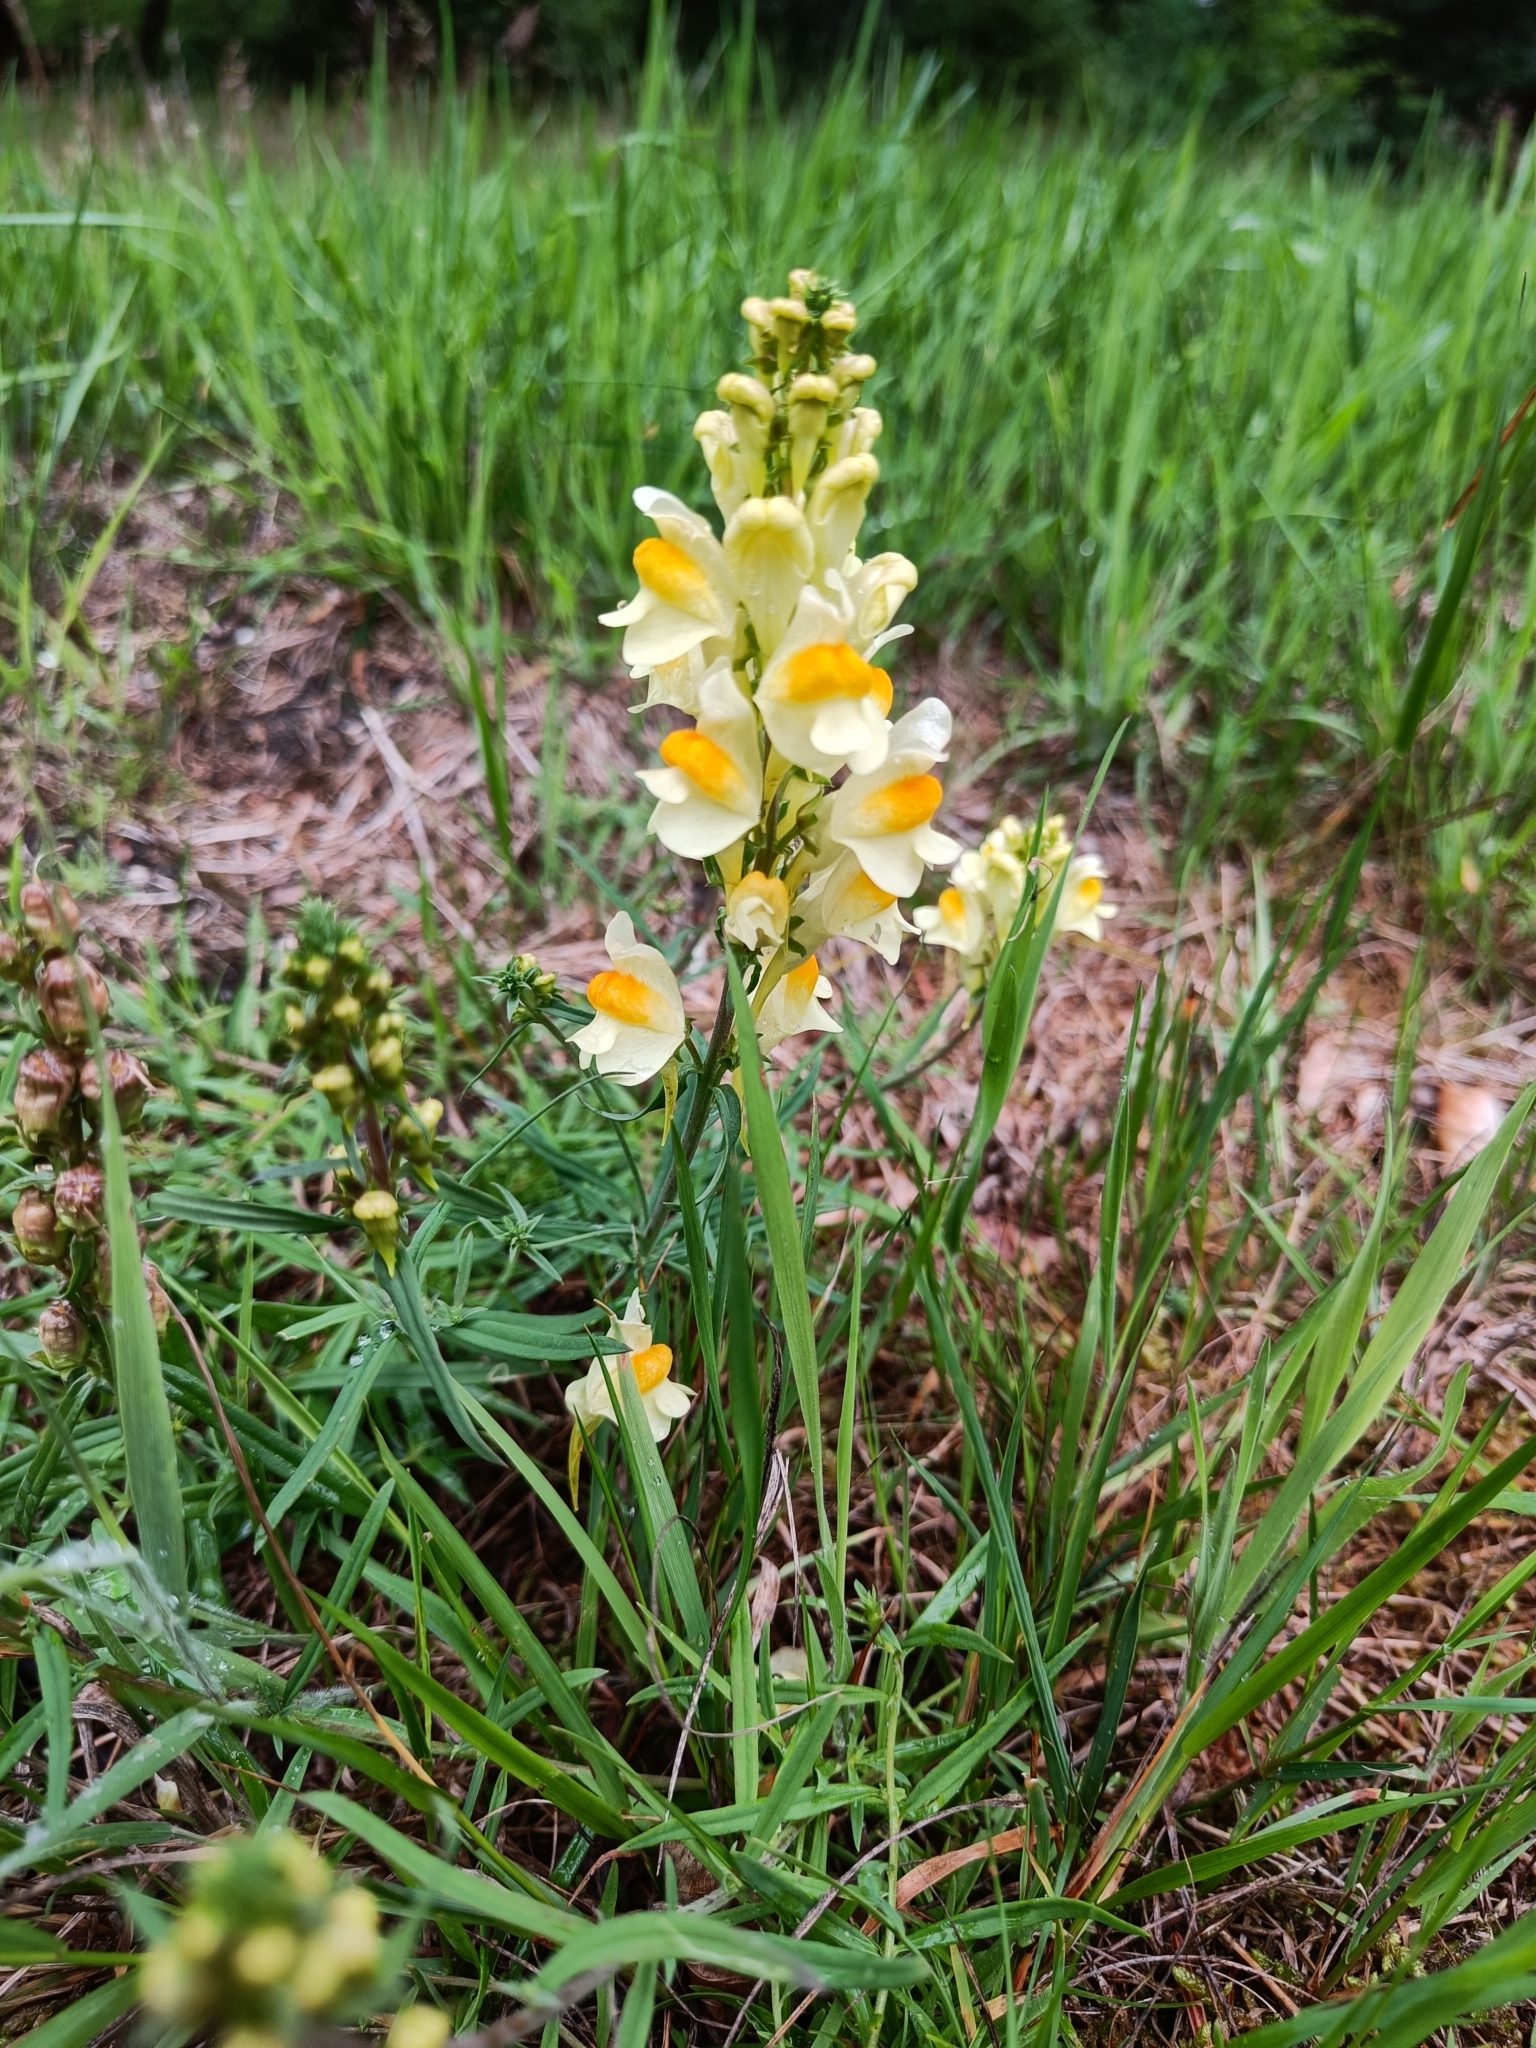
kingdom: Plantae
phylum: Tracheophyta
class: Magnoliopsida
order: Lamiales
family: Plantaginaceae
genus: Linaria
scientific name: Linaria vulgaris
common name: Butter and eggs
